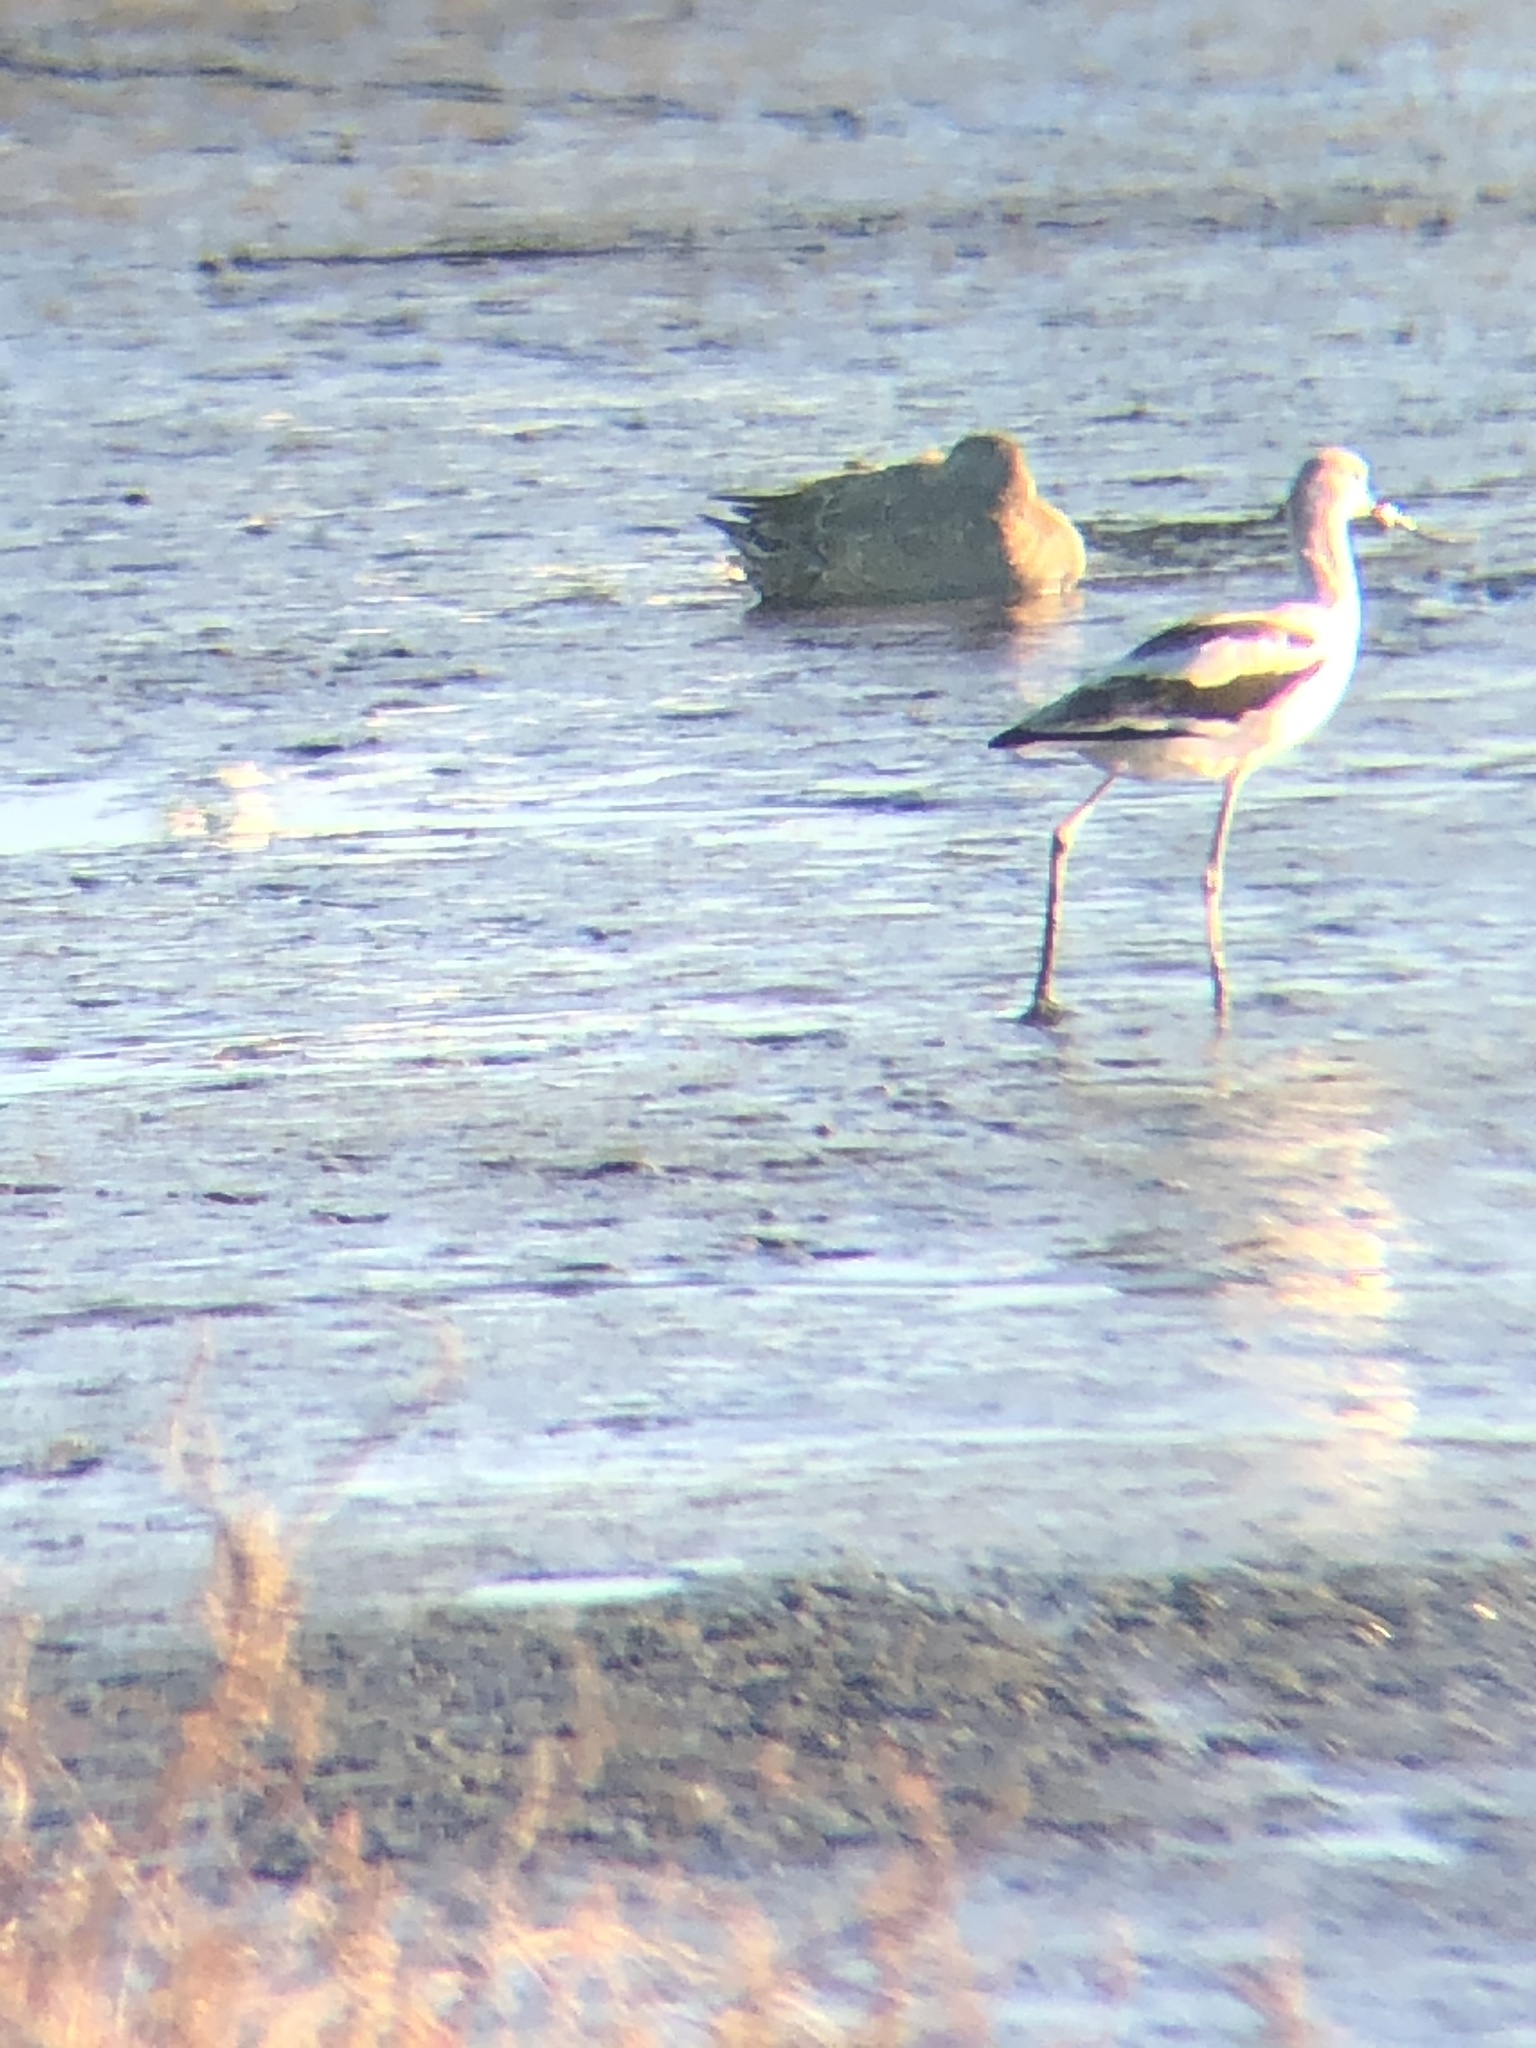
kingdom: Animalia
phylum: Chordata
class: Aves
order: Charadriiformes
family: Recurvirostridae
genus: Recurvirostra
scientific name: Recurvirostra americana
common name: American avocet
